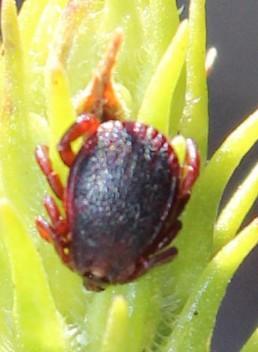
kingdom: Animalia
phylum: Arthropoda
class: Arachnida
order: Ixodida
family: Ixodidae
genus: Rhipicephalus
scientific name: Rhipicephalus evertsi
